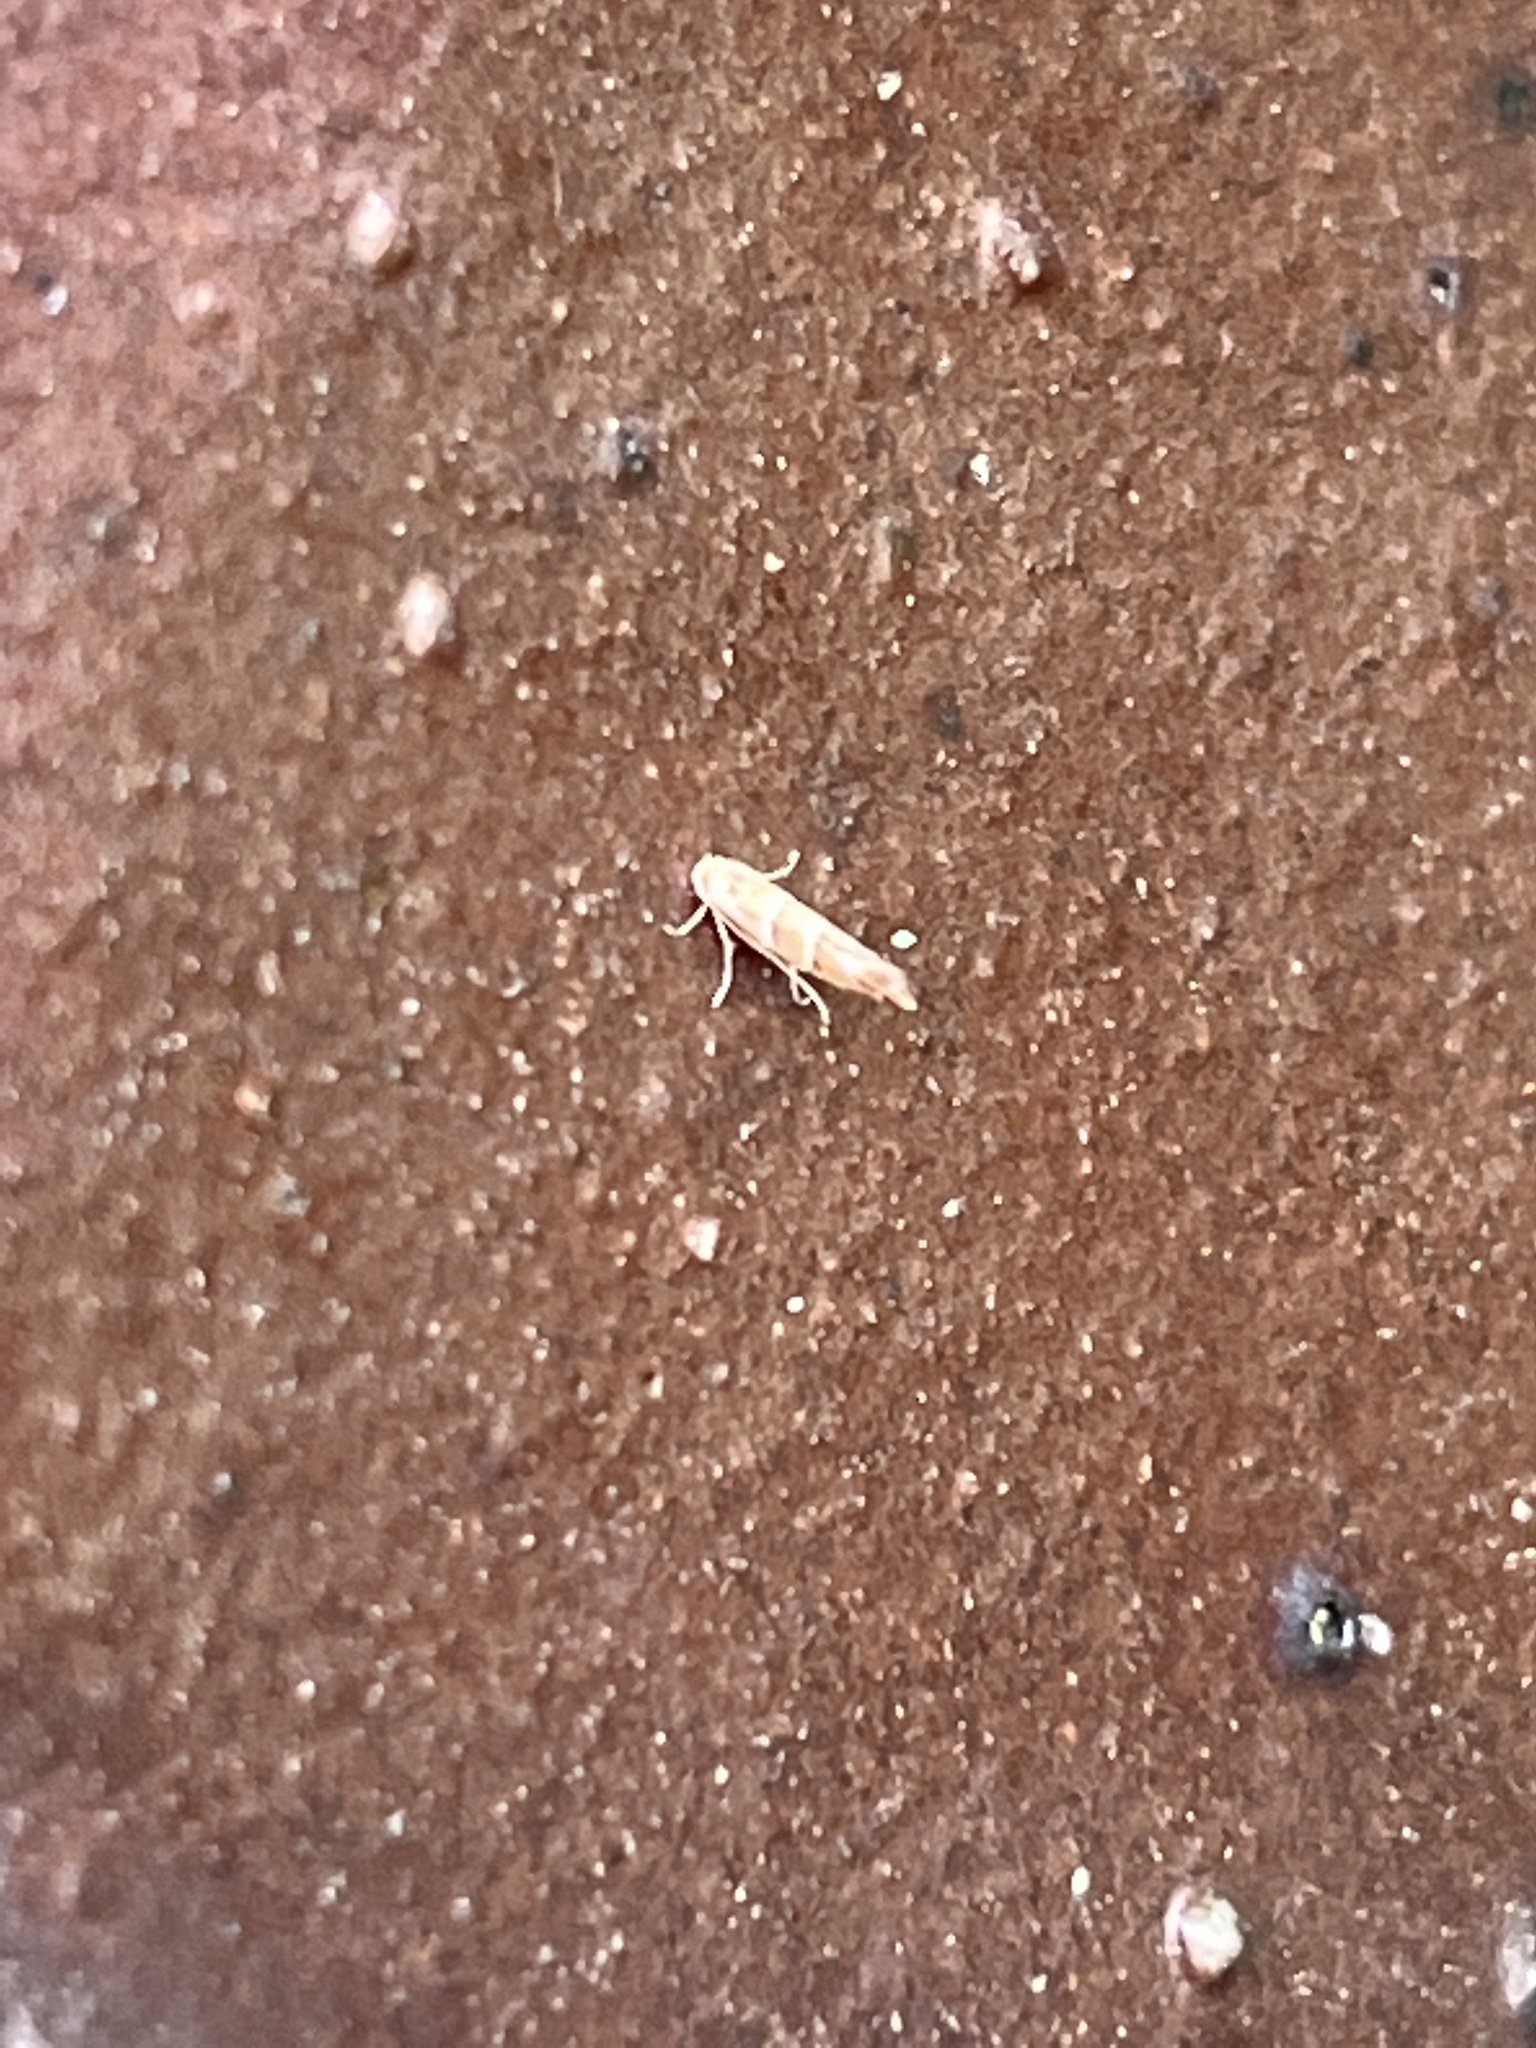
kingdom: Animalia
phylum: Arthropoda
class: Insecta
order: Lepidoptera
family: Gracillariidae
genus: Cameraria
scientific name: Cameraria ohridella
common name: Horse-chestnut leaf-miner
